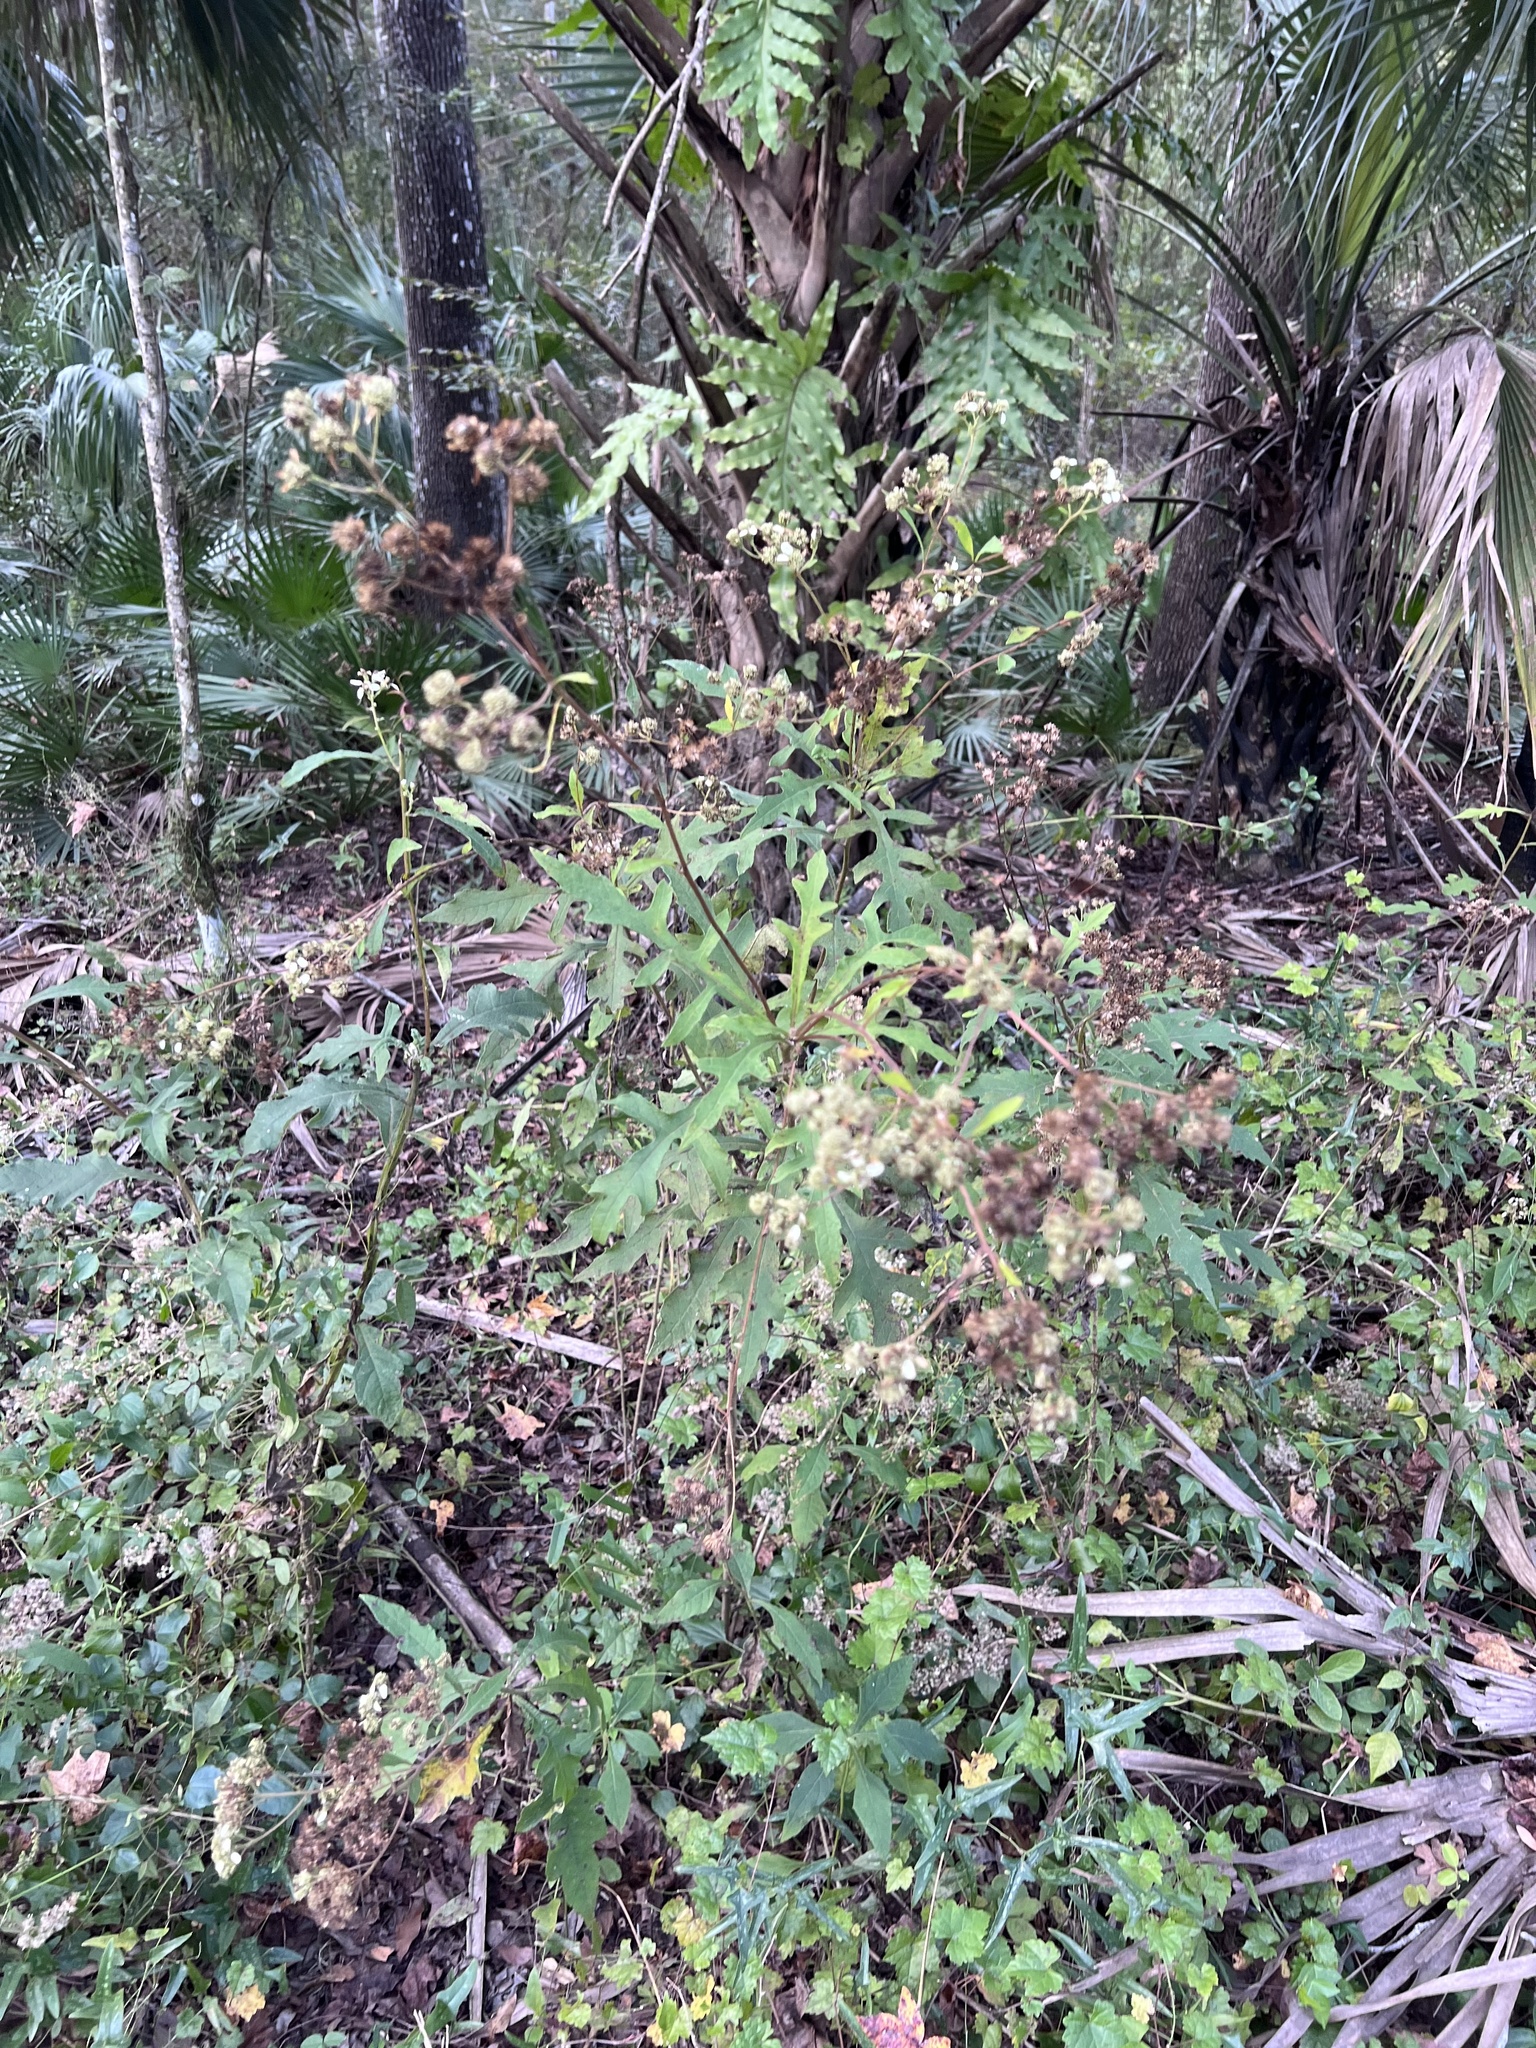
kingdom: Plantae
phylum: Tracheophyta
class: Magnoliopsida
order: Asterales
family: Asteraceae
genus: Verbesina
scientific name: Verbesina virginica
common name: Frostweed
